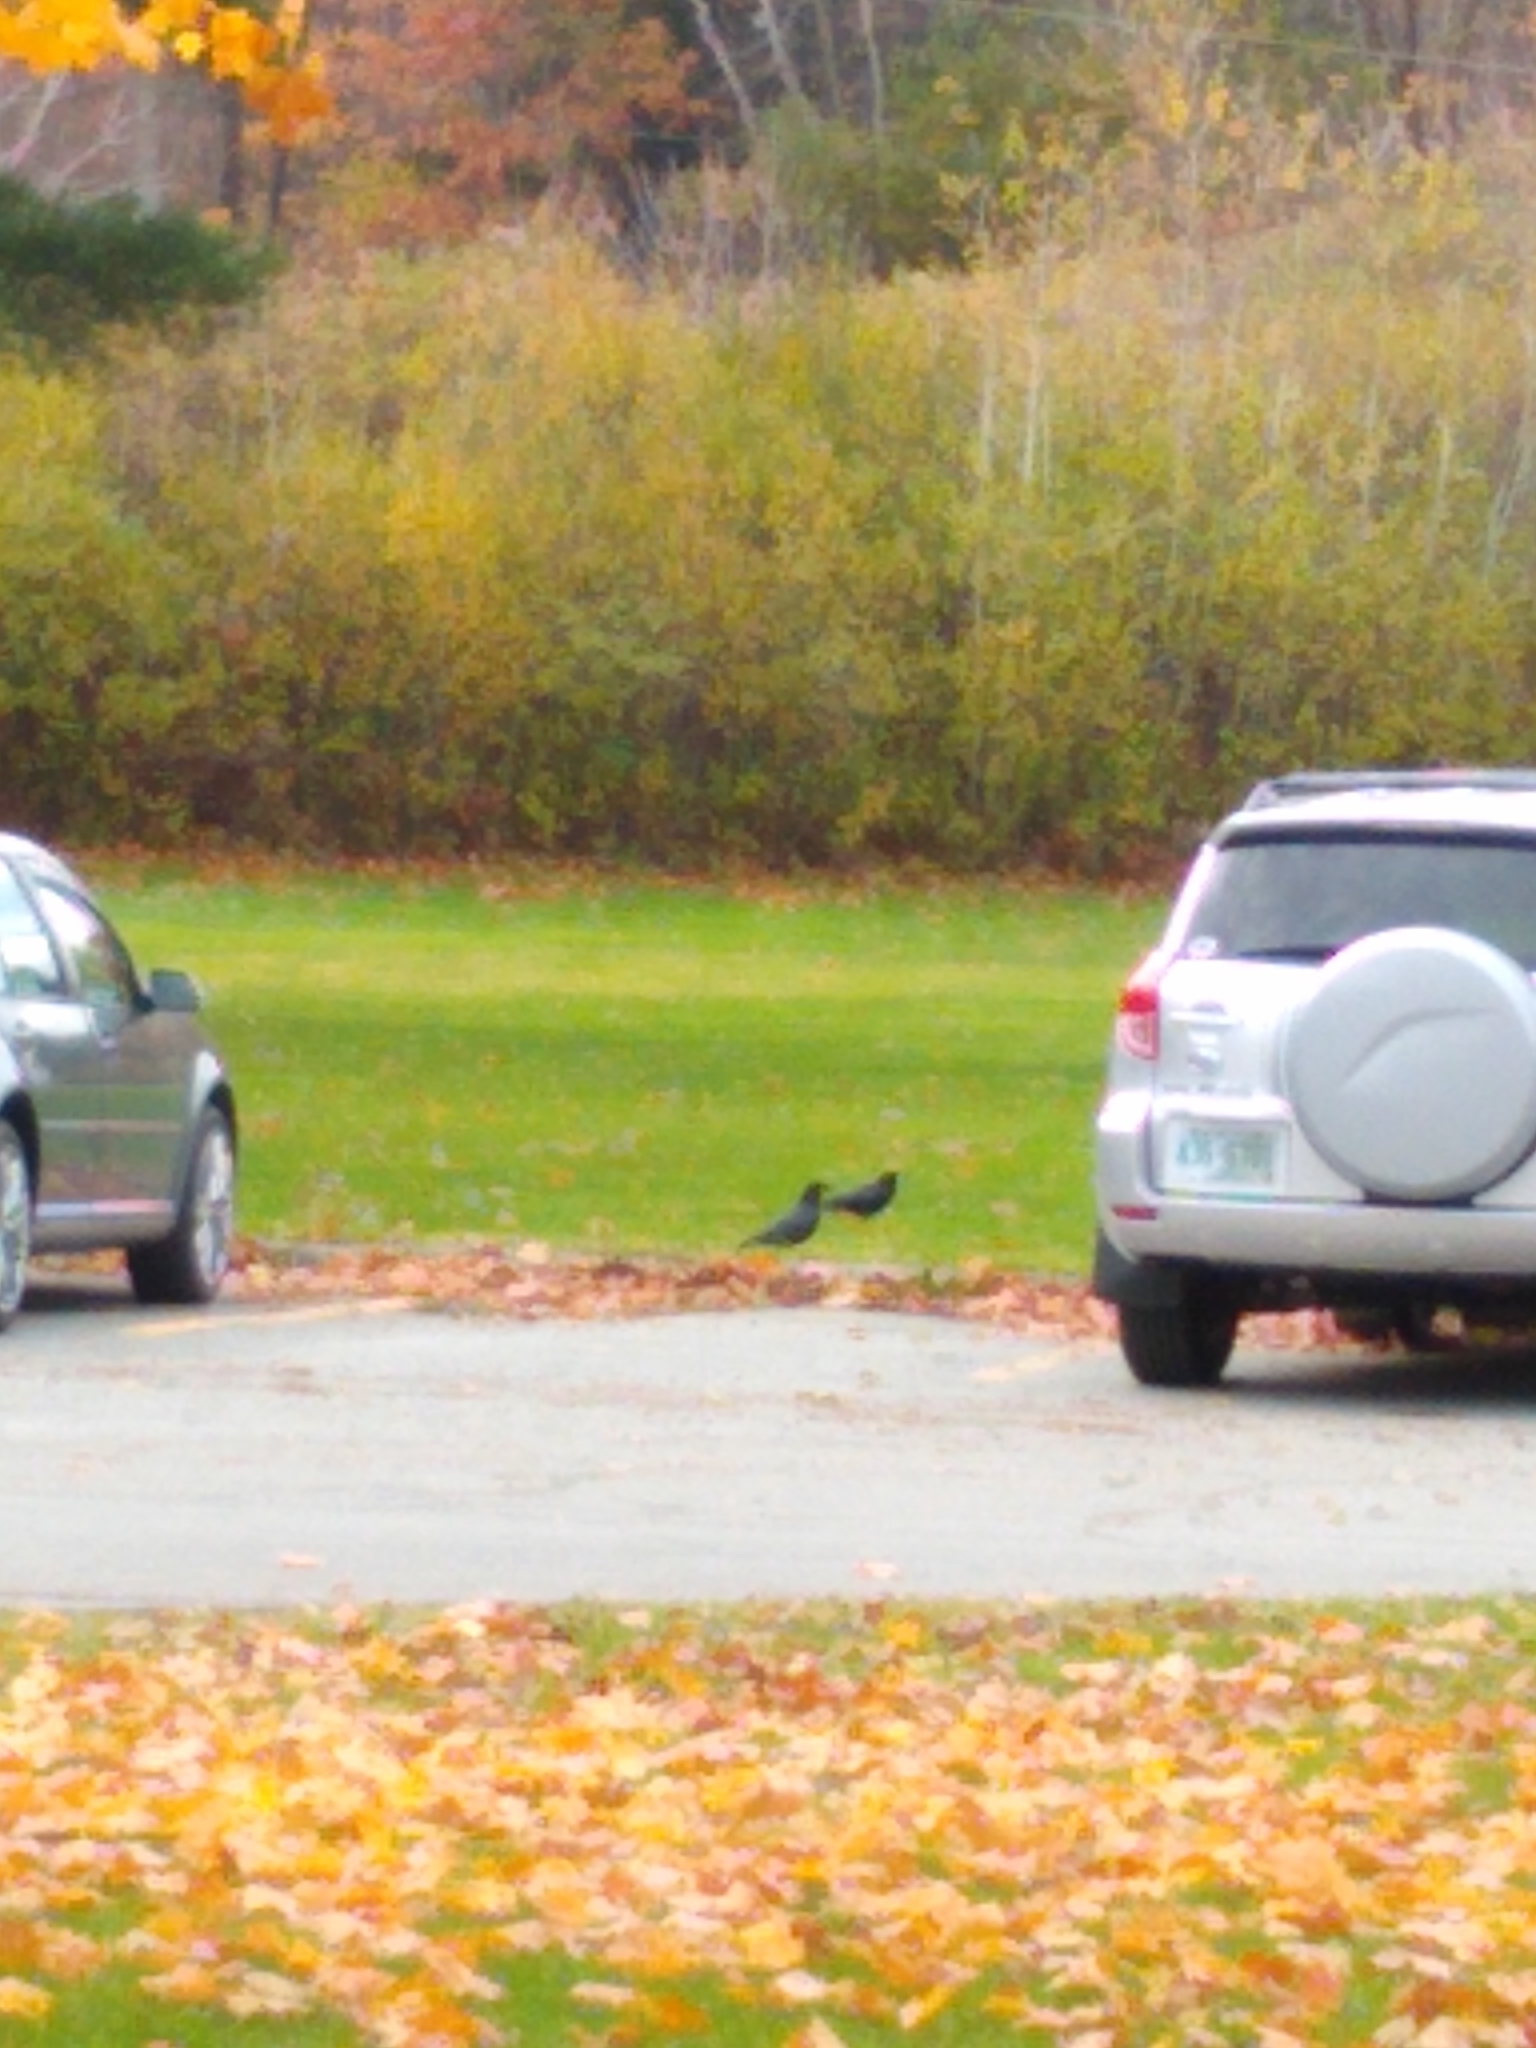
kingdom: Animalia
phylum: Chordata
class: Aves
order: Passeriformes
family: Corvidae
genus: Corvus
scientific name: Corvus brachyrhynchos
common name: American crow
